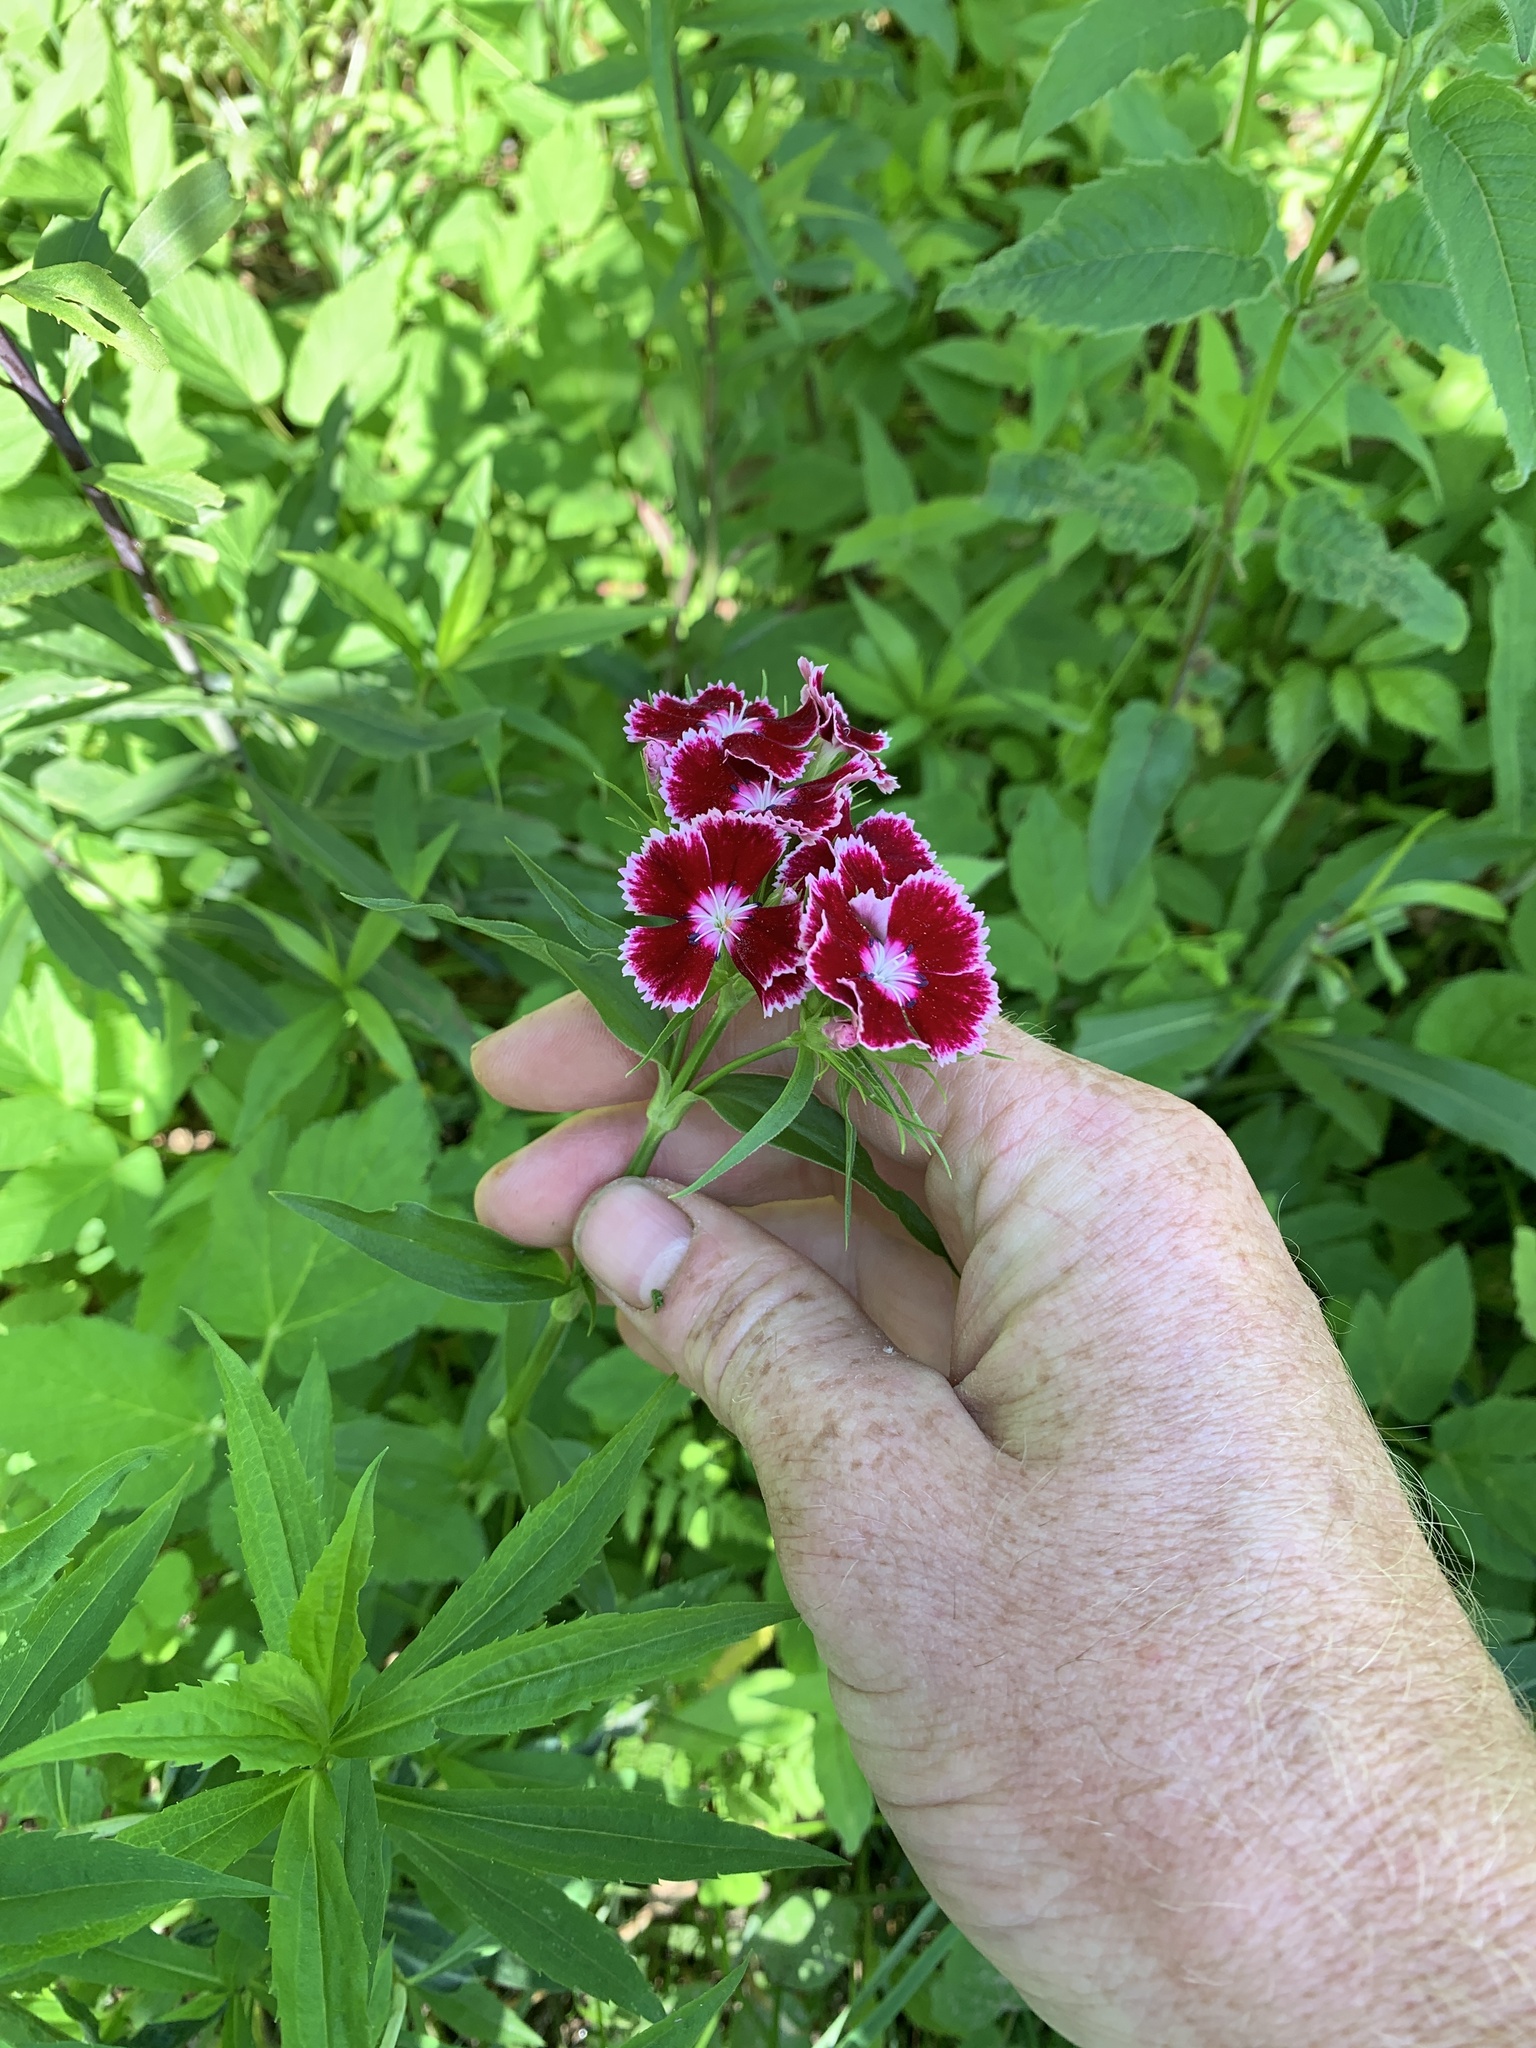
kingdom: Plantae
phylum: Tracheophyta
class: Magnoliopsida
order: Caryophyllales
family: Caryophyllaceae
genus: Dianthus
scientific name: Dianthus barbatus
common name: Sweet-william
